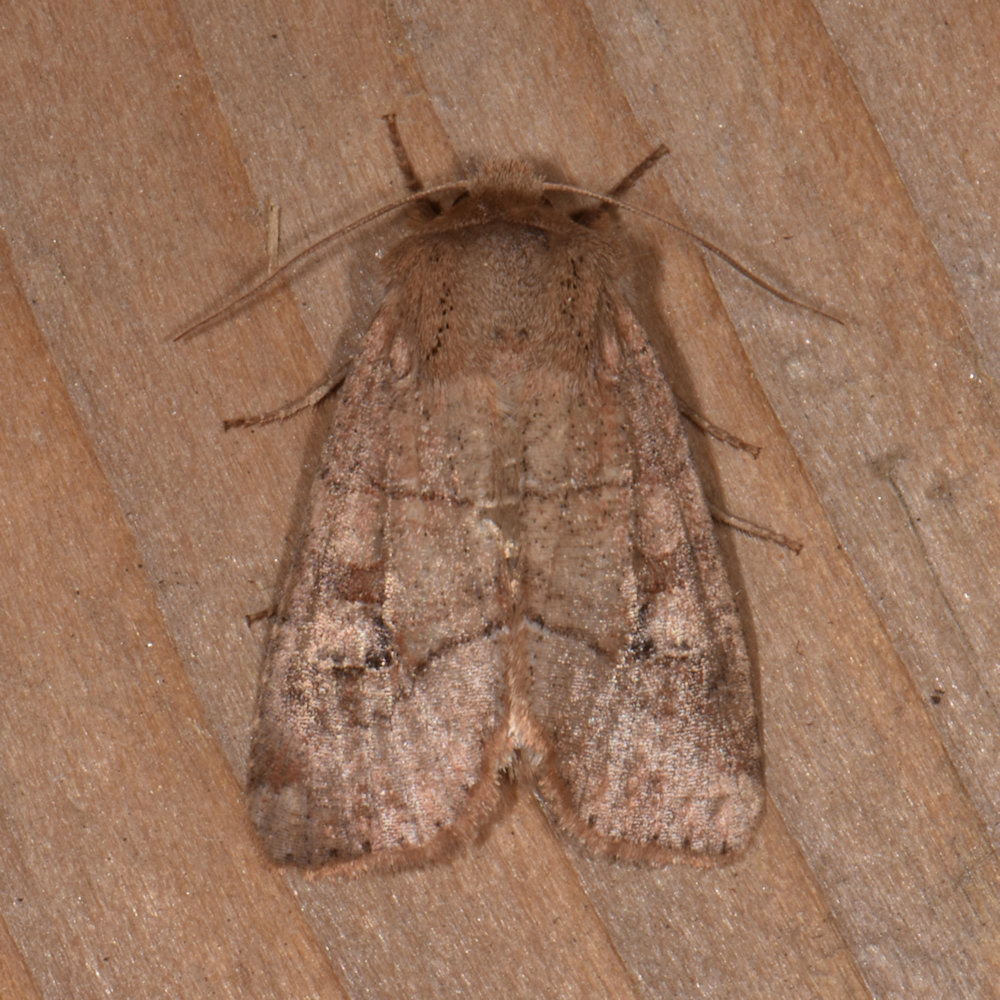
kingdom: Animalia
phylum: Arthropoda
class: Insecta
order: Lepidoptera
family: Noctuidae
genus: Crocigrapha
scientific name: Crocigrapha normani
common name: Norman's quaker
